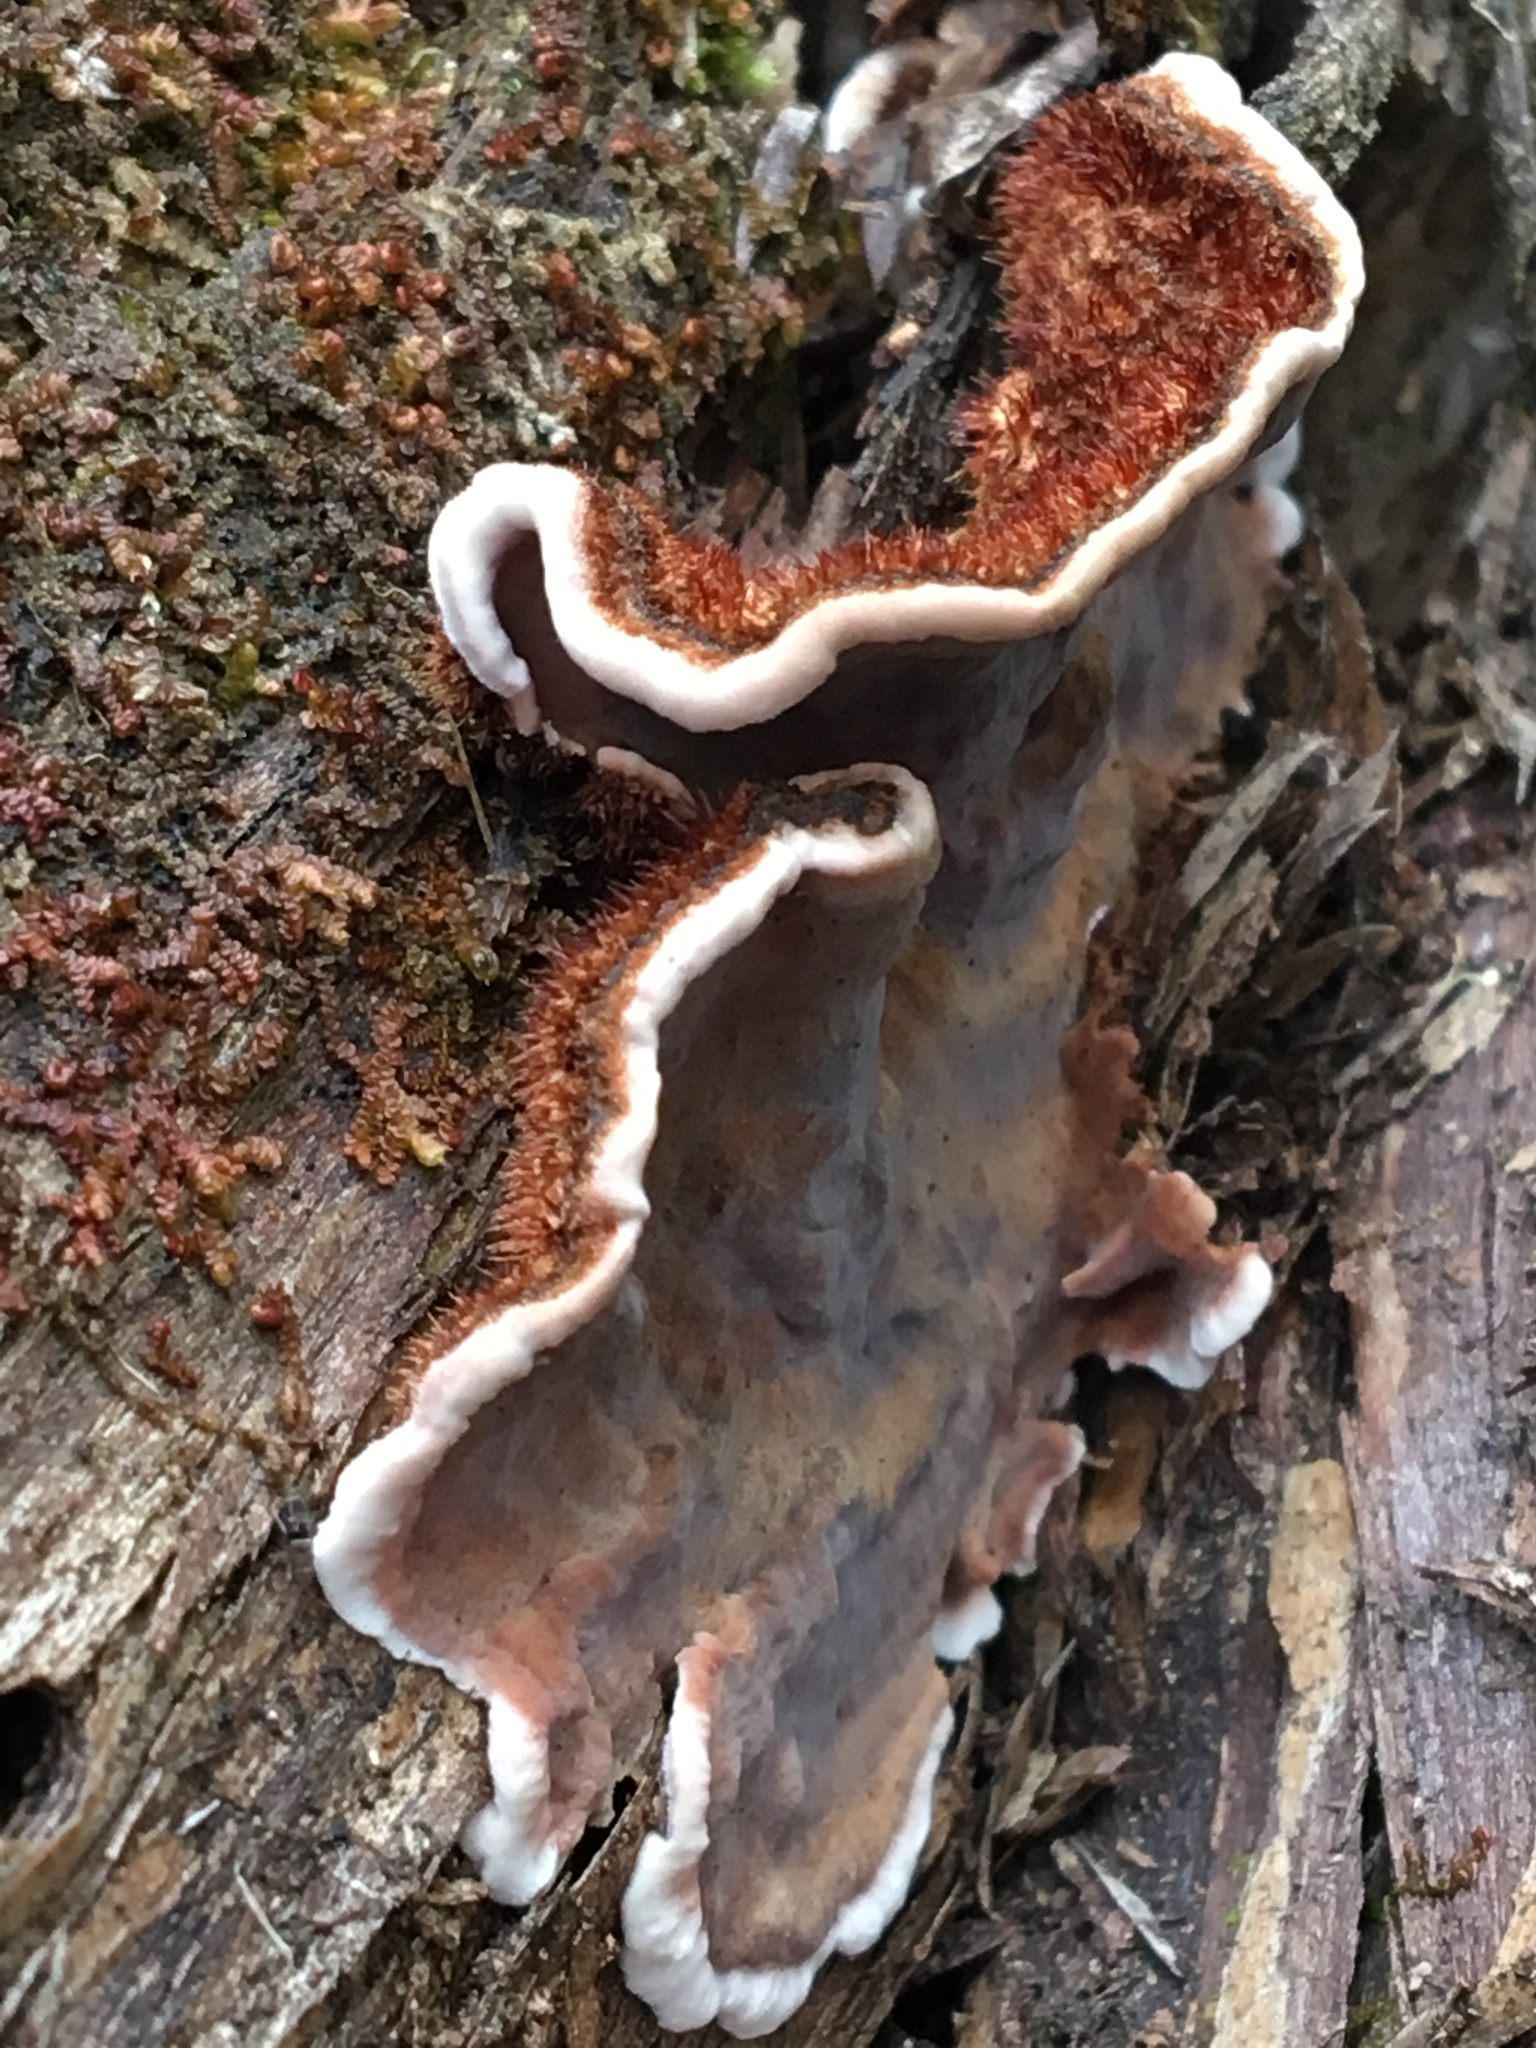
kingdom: Fungi
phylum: Basidiomycota
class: Agaricomycetes
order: Russulales
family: Stereaceae
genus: Xylobolus
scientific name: Xylobolus illudens
